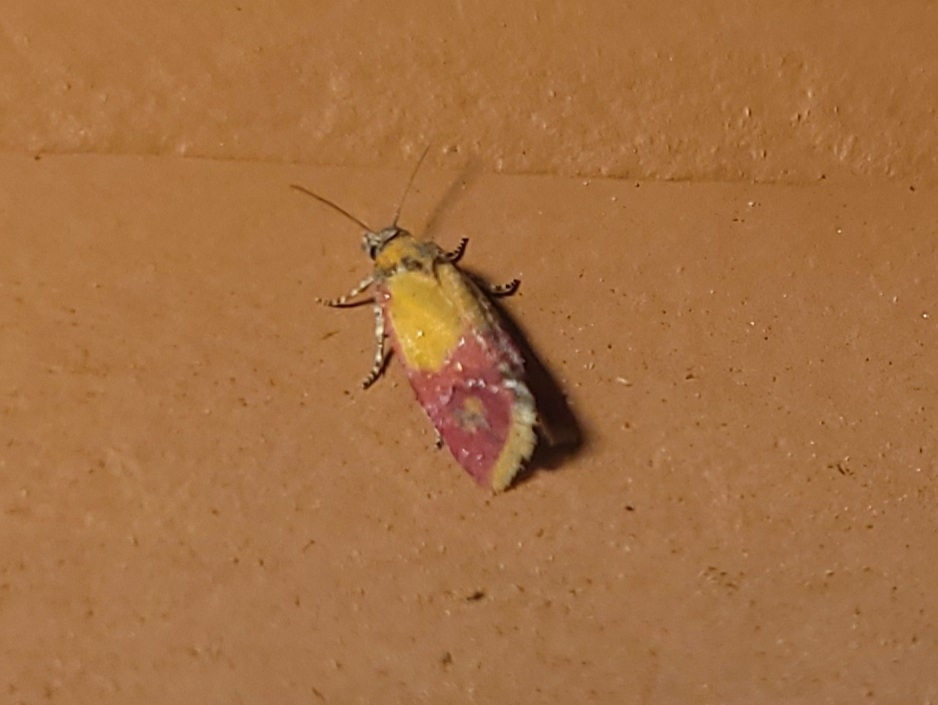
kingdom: Animalia
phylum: Arthropoda
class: Insecta
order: Lepidoptera
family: Tortricidae
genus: Conchylis
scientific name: Conchylis oenotherana
